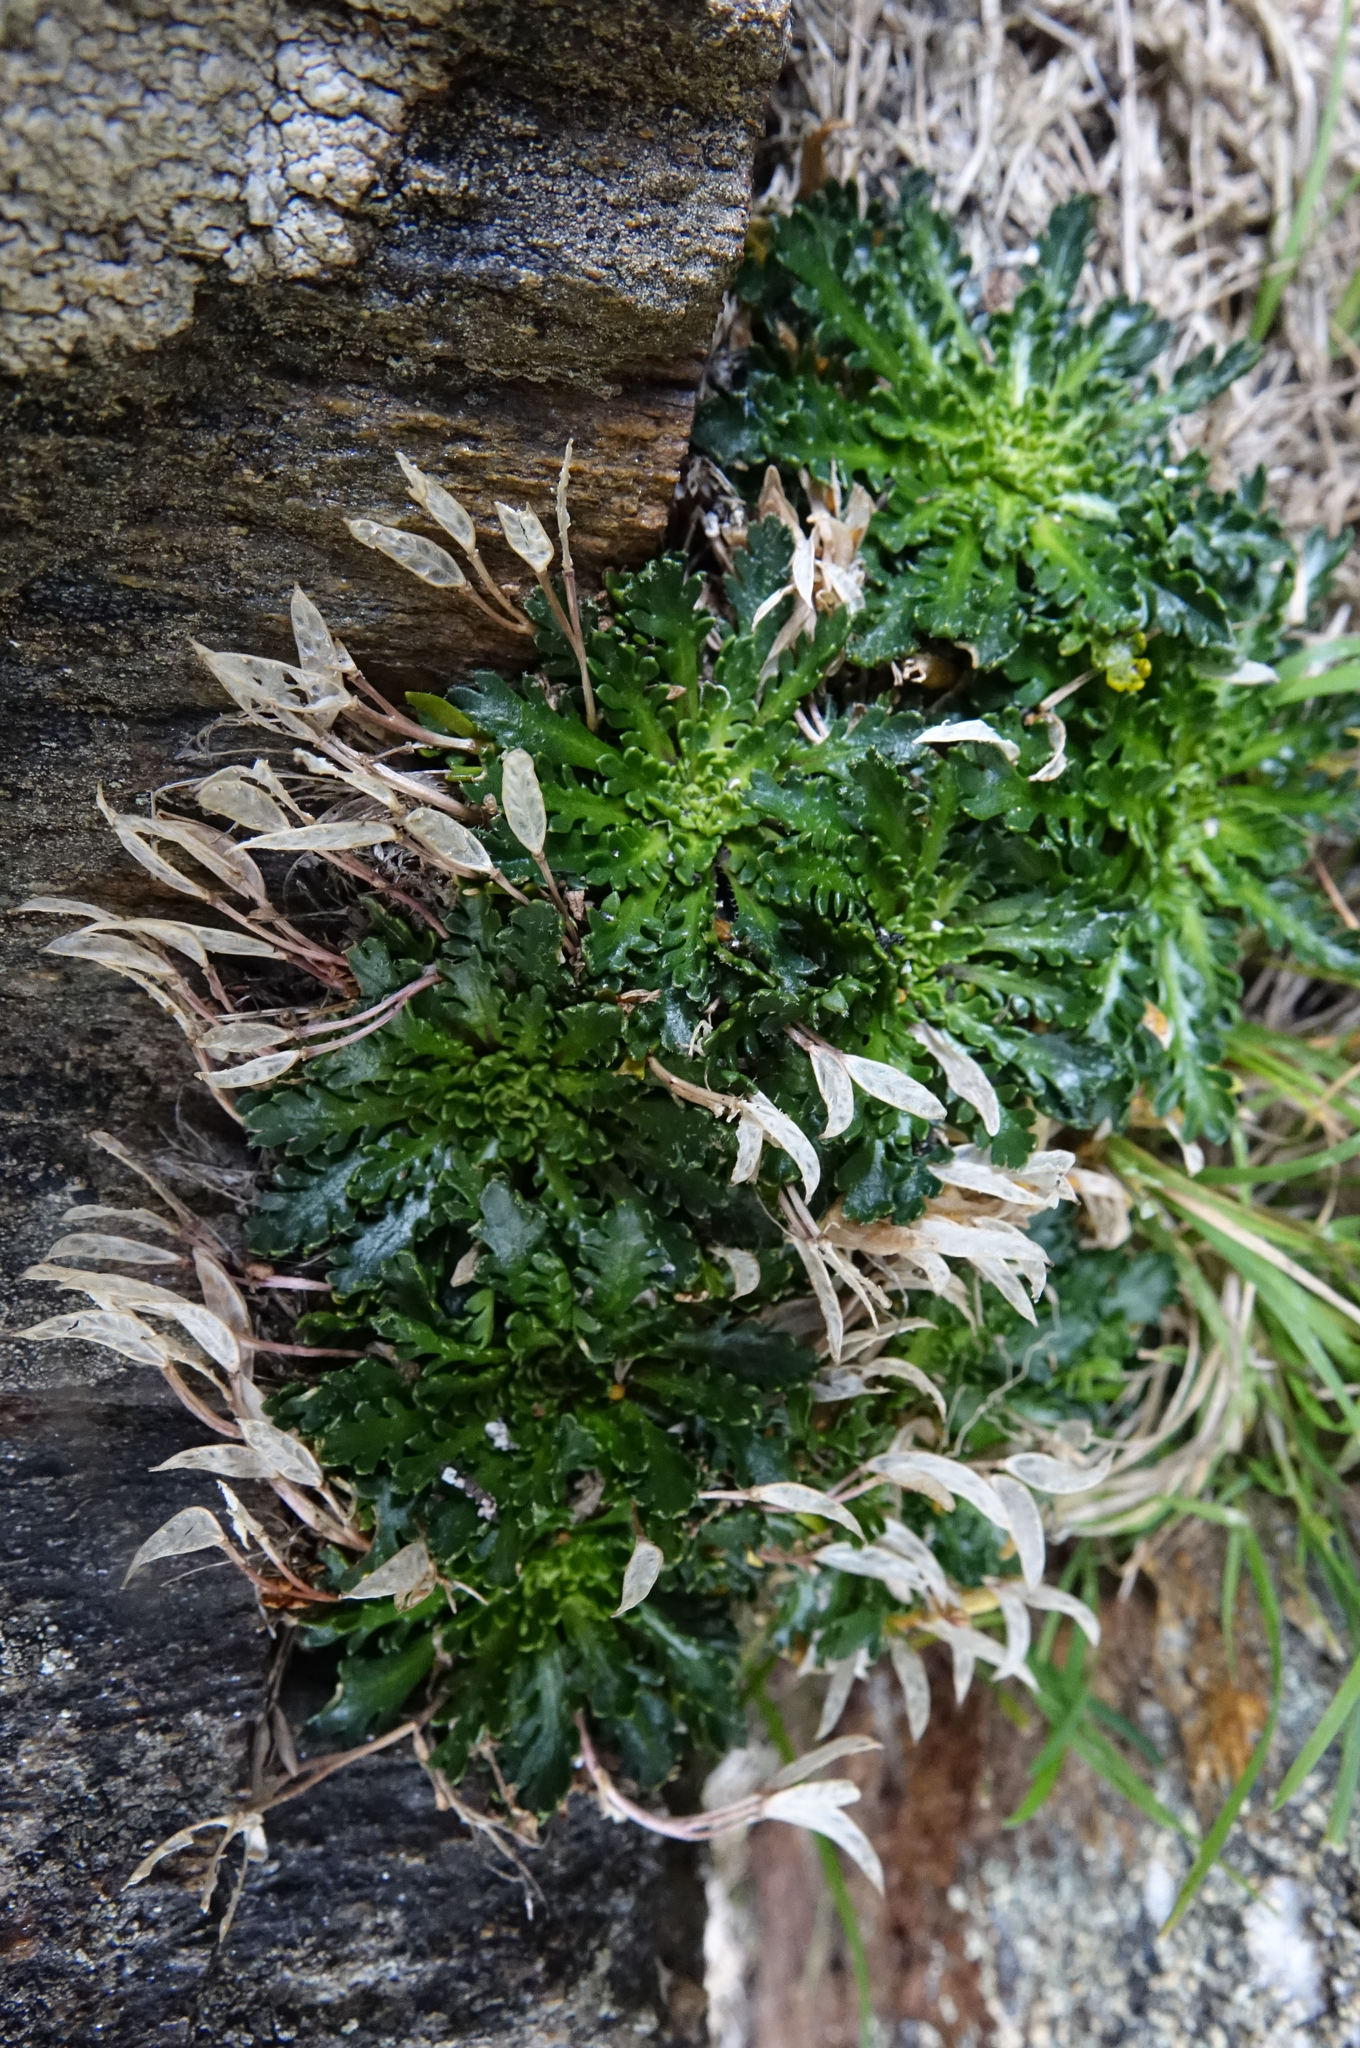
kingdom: Plantae
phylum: Tracheophyta
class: Magnoliopsida
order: Brassicales
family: Brassicaceae
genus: Pachycladon
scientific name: Pachycladon novae-zelandiae
